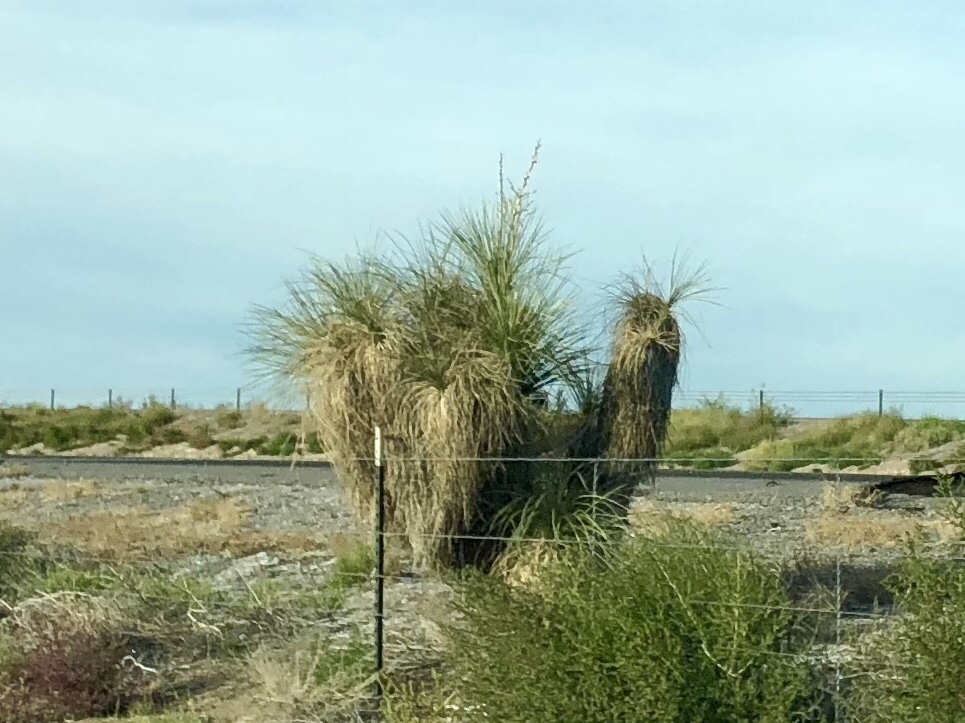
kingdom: Plantae
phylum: Tracheophyta
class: Liliopsida
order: Asparagales
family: Asparagaceae
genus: Yucca
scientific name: Yucca elata
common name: Palmella
